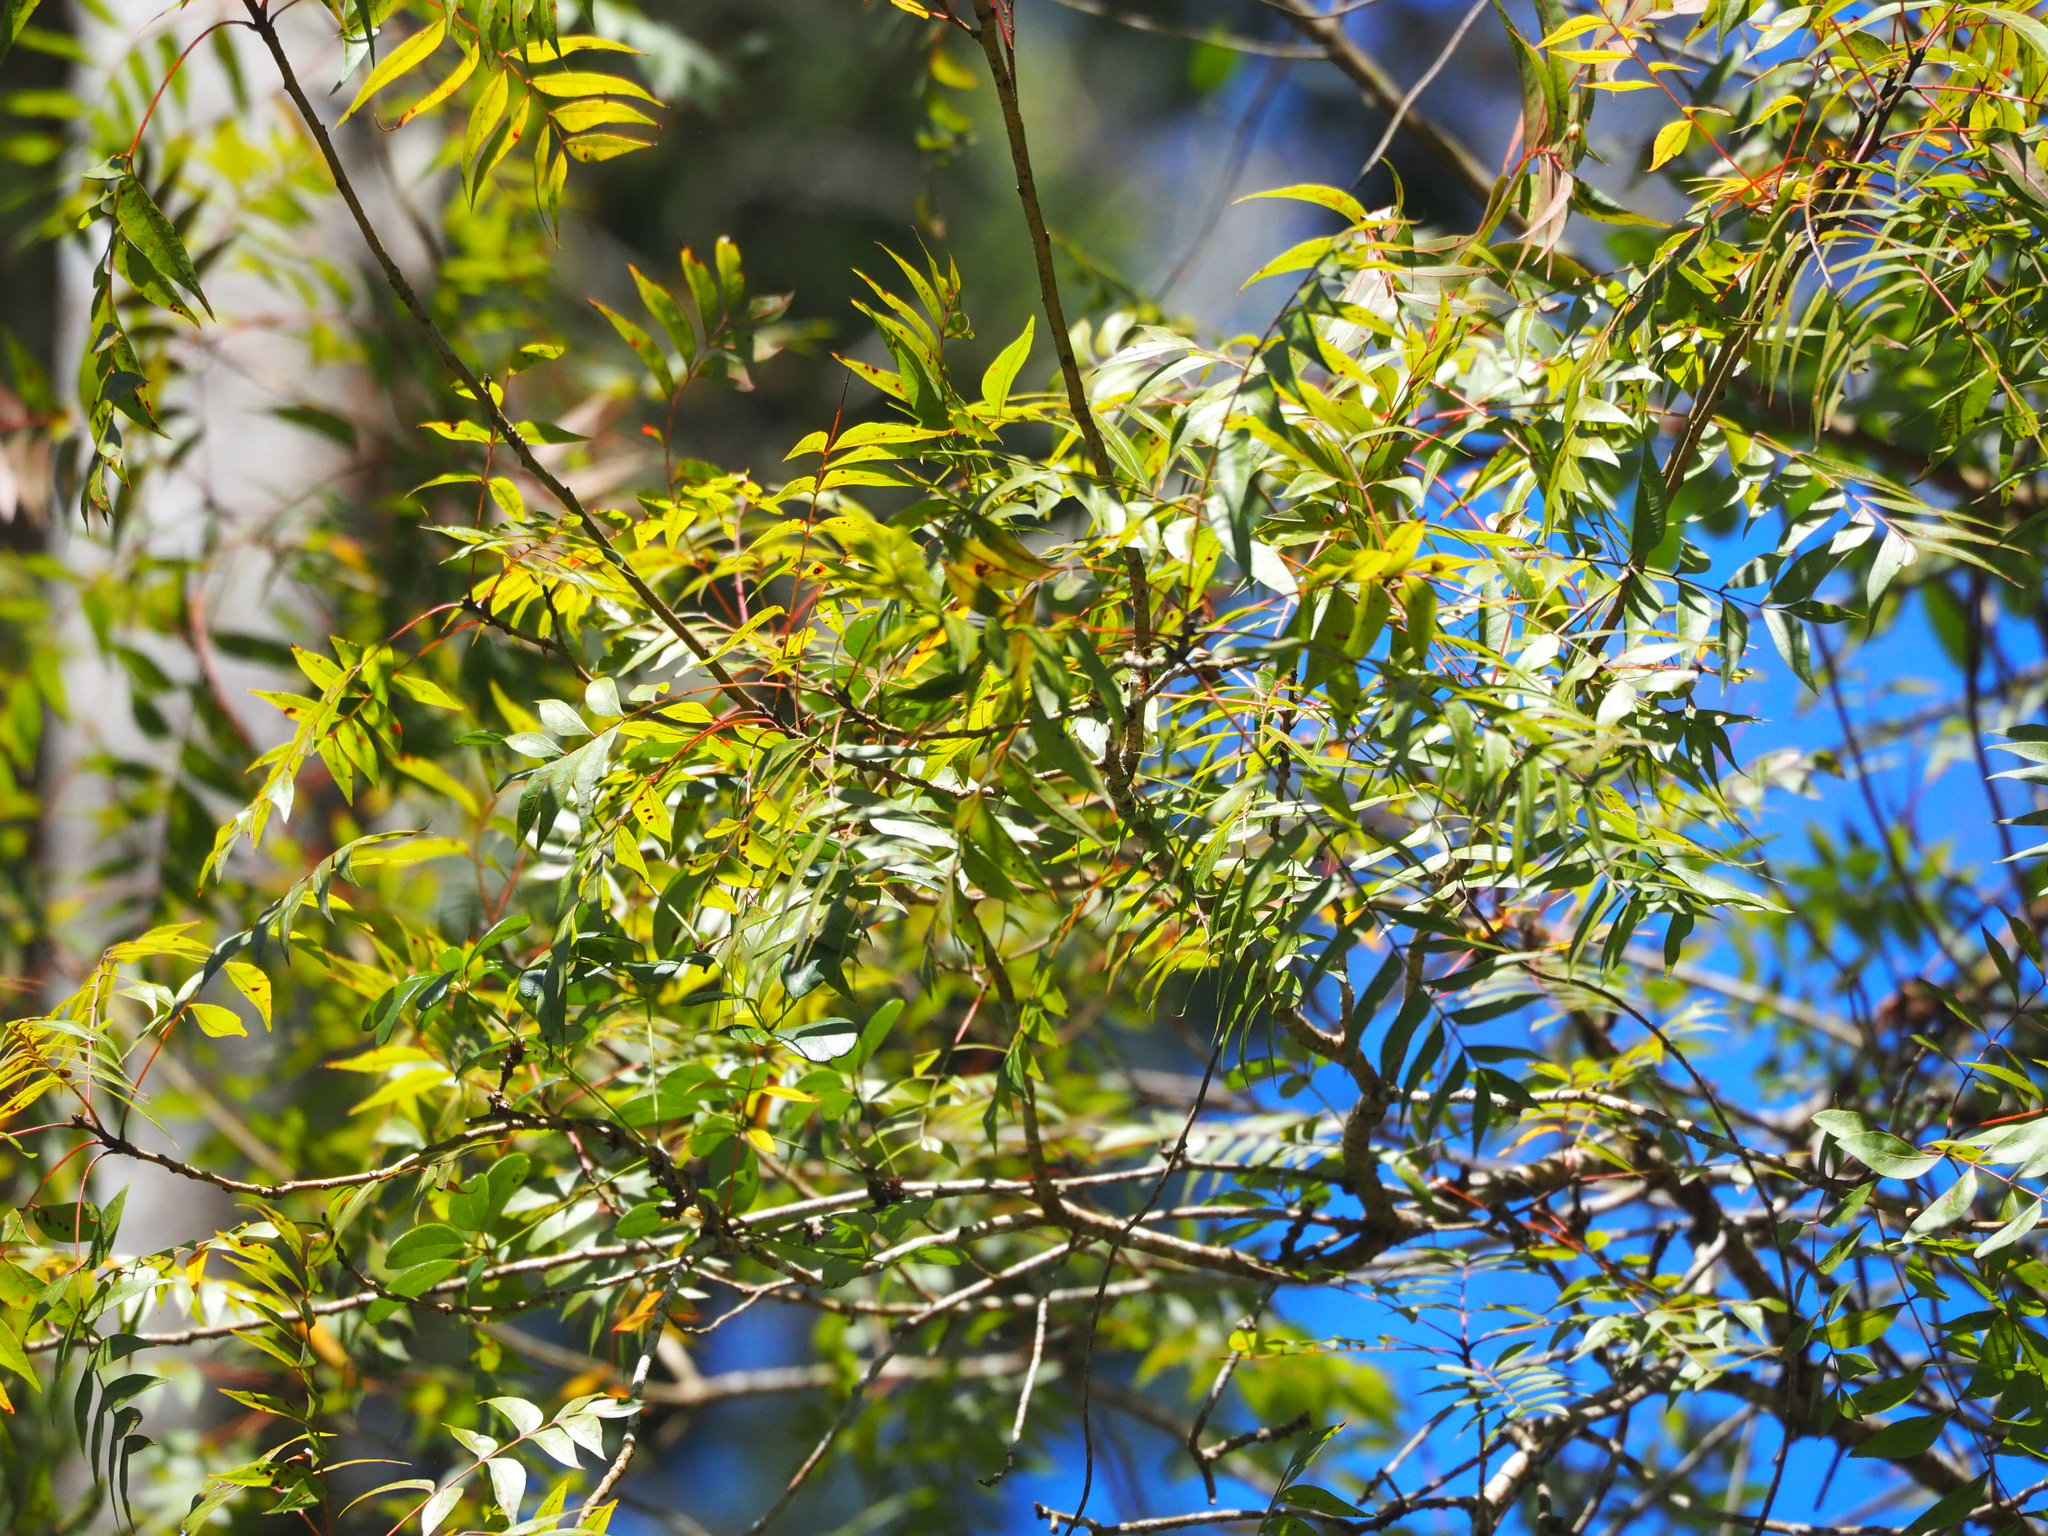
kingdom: Plantae
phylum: Tracheophyta
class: Magnoliopsida
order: Sapindales
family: Anacardiaceae
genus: Pistacia
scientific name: Pistacia chinensis
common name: Chinese pistache
